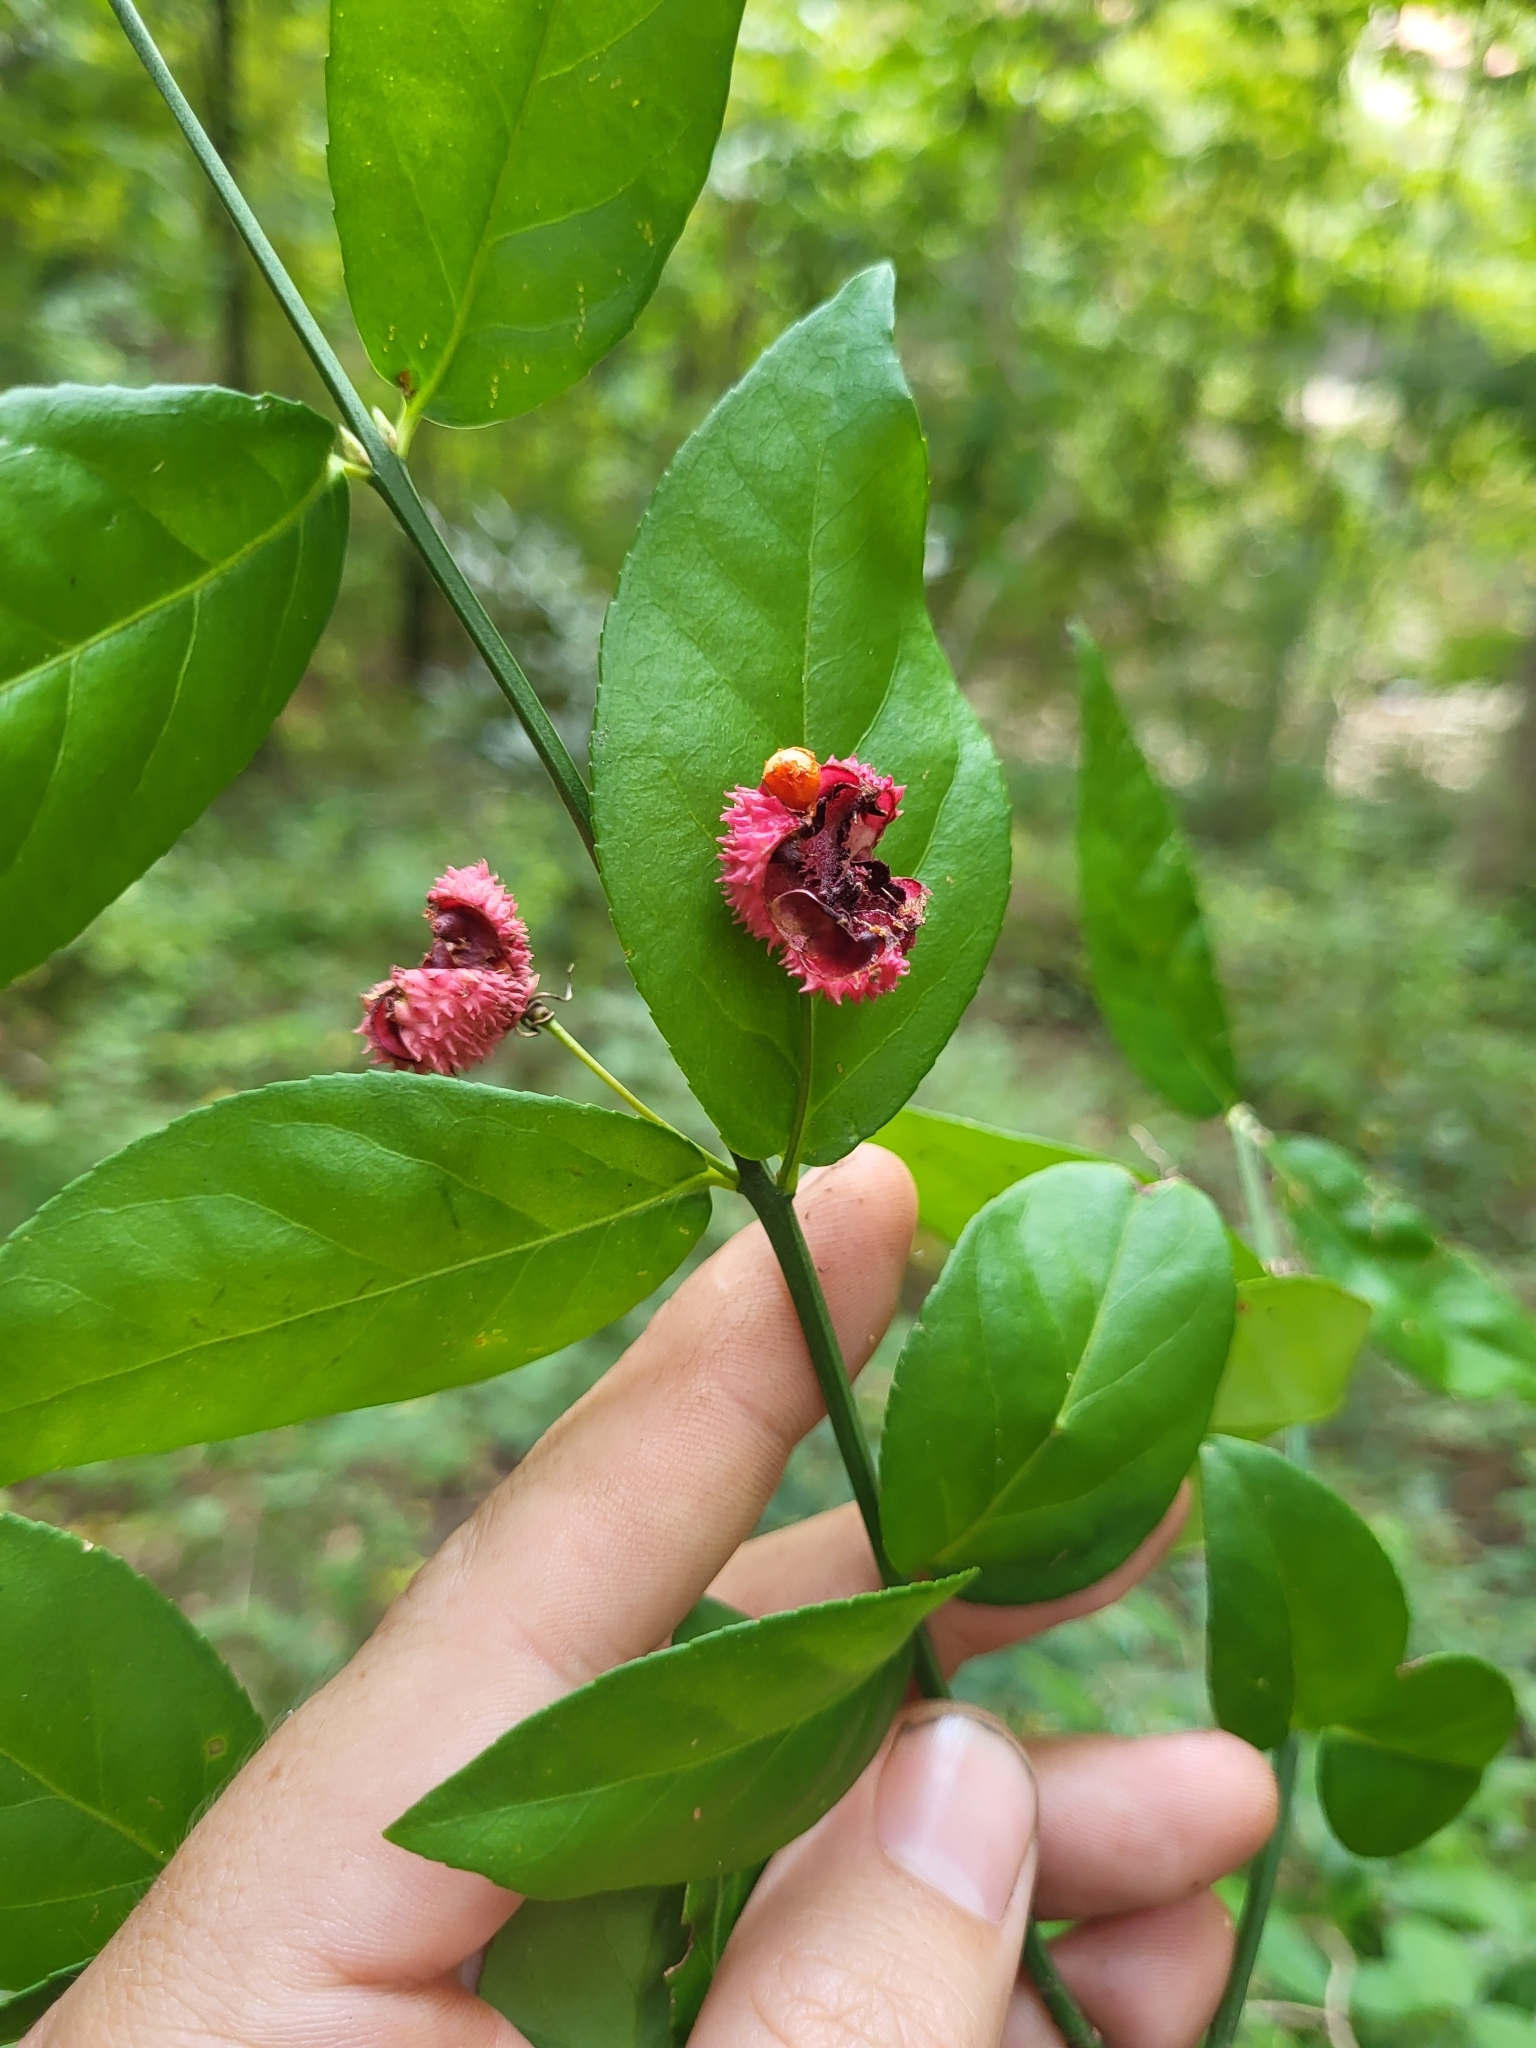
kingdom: Plantae
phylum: Tracheophyta
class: Magnoliopsida
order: Celastrales
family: Celastraceae
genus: Euonymus
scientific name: Euonymus americanus
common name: Bursting-heart
